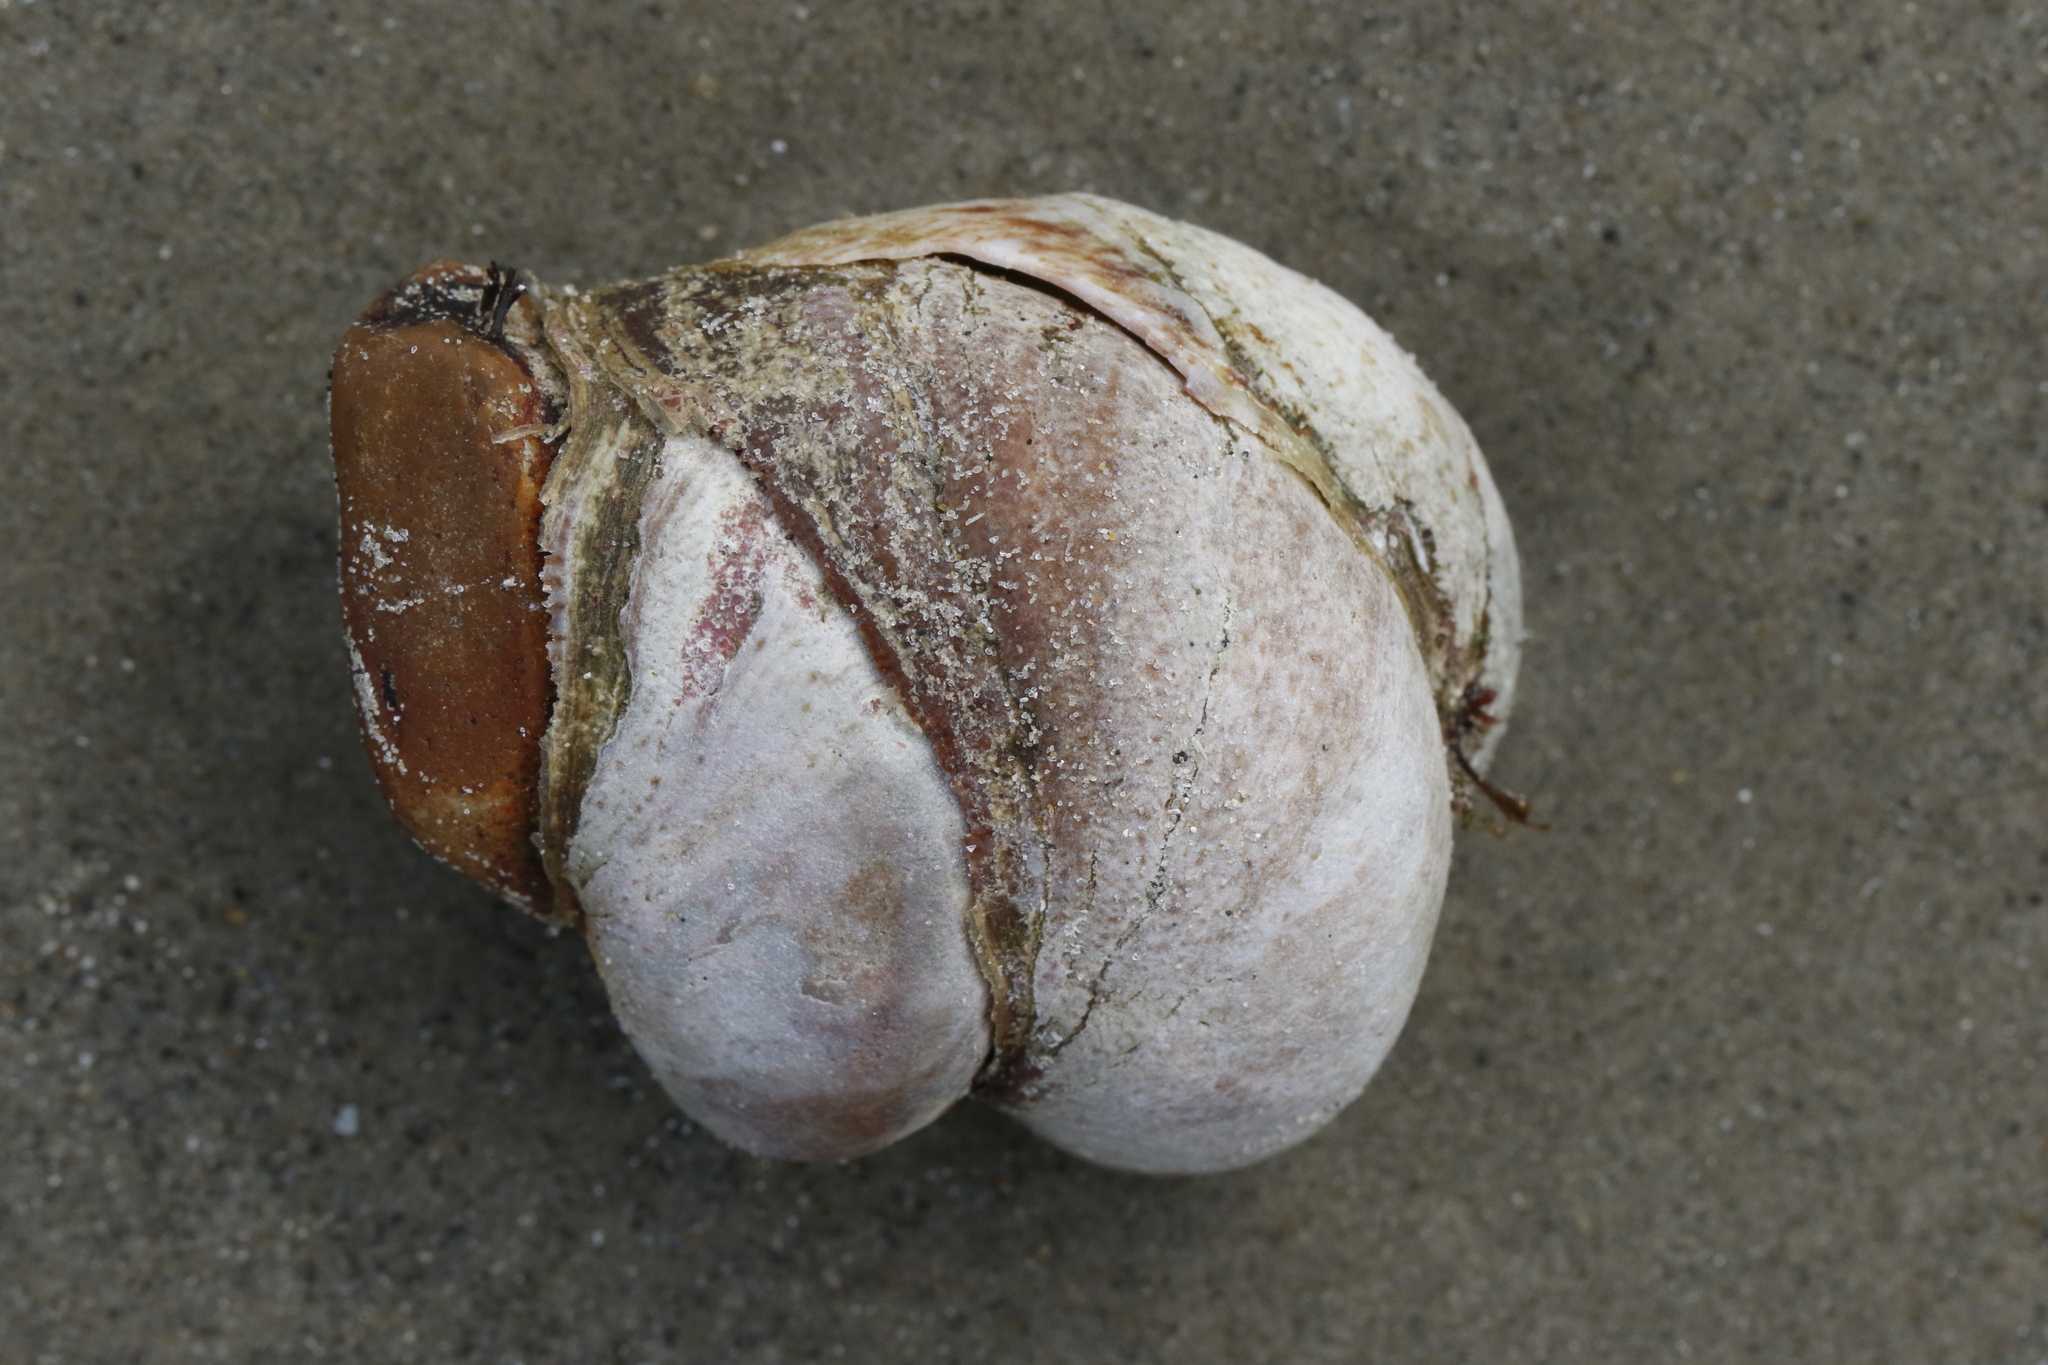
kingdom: Animalia
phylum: Mollusca
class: Gastropoda
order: Littorinimorpha
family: Calyptraeidae
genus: Crepidula
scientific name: Crepidula fornicata
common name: Slipper limpet
